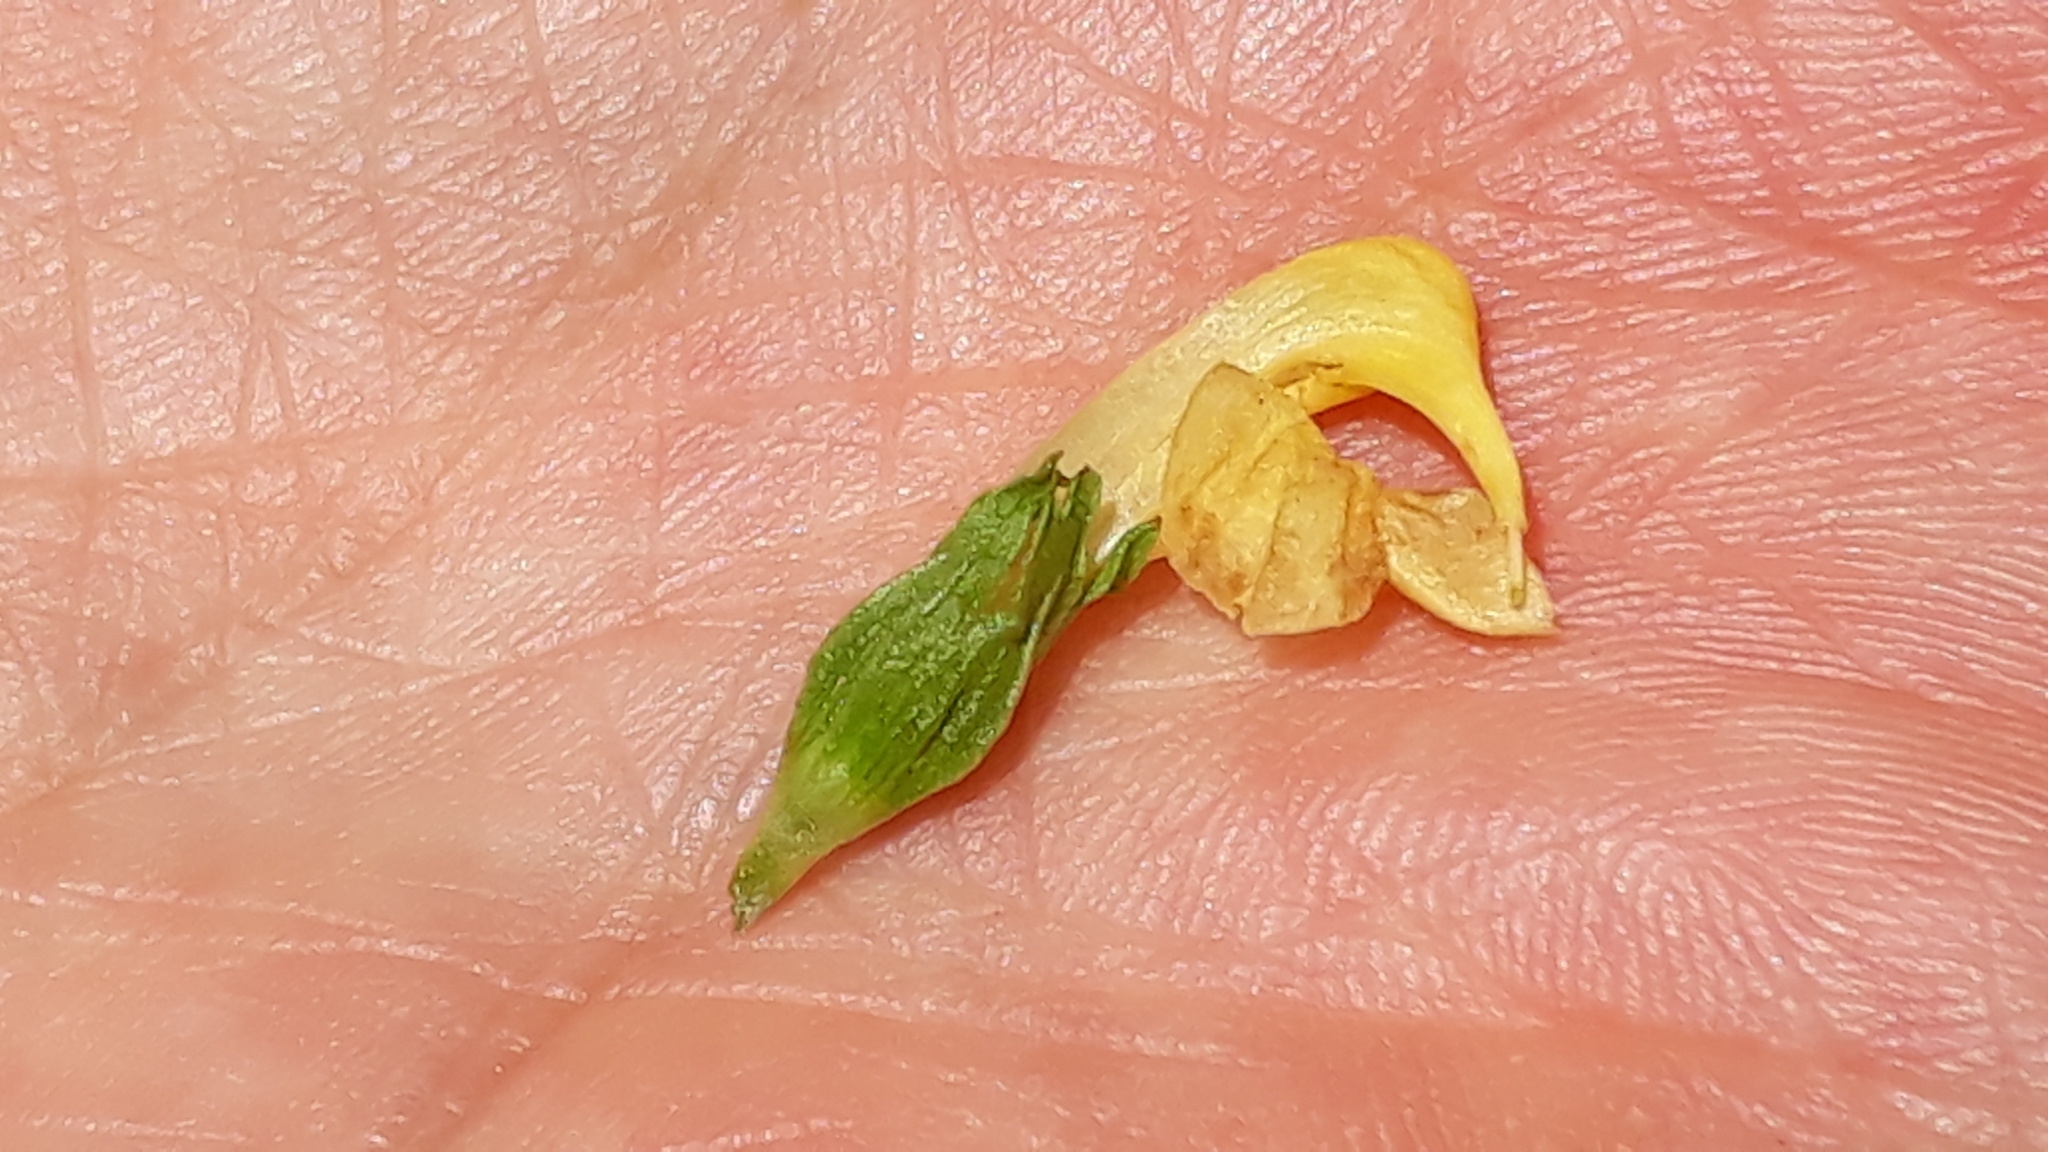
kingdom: Plantae
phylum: Tracheophyta
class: Magnoliopsida
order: Lamiales
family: Orobanchaceae
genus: Pedicularis
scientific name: Pedicularis ascendens
